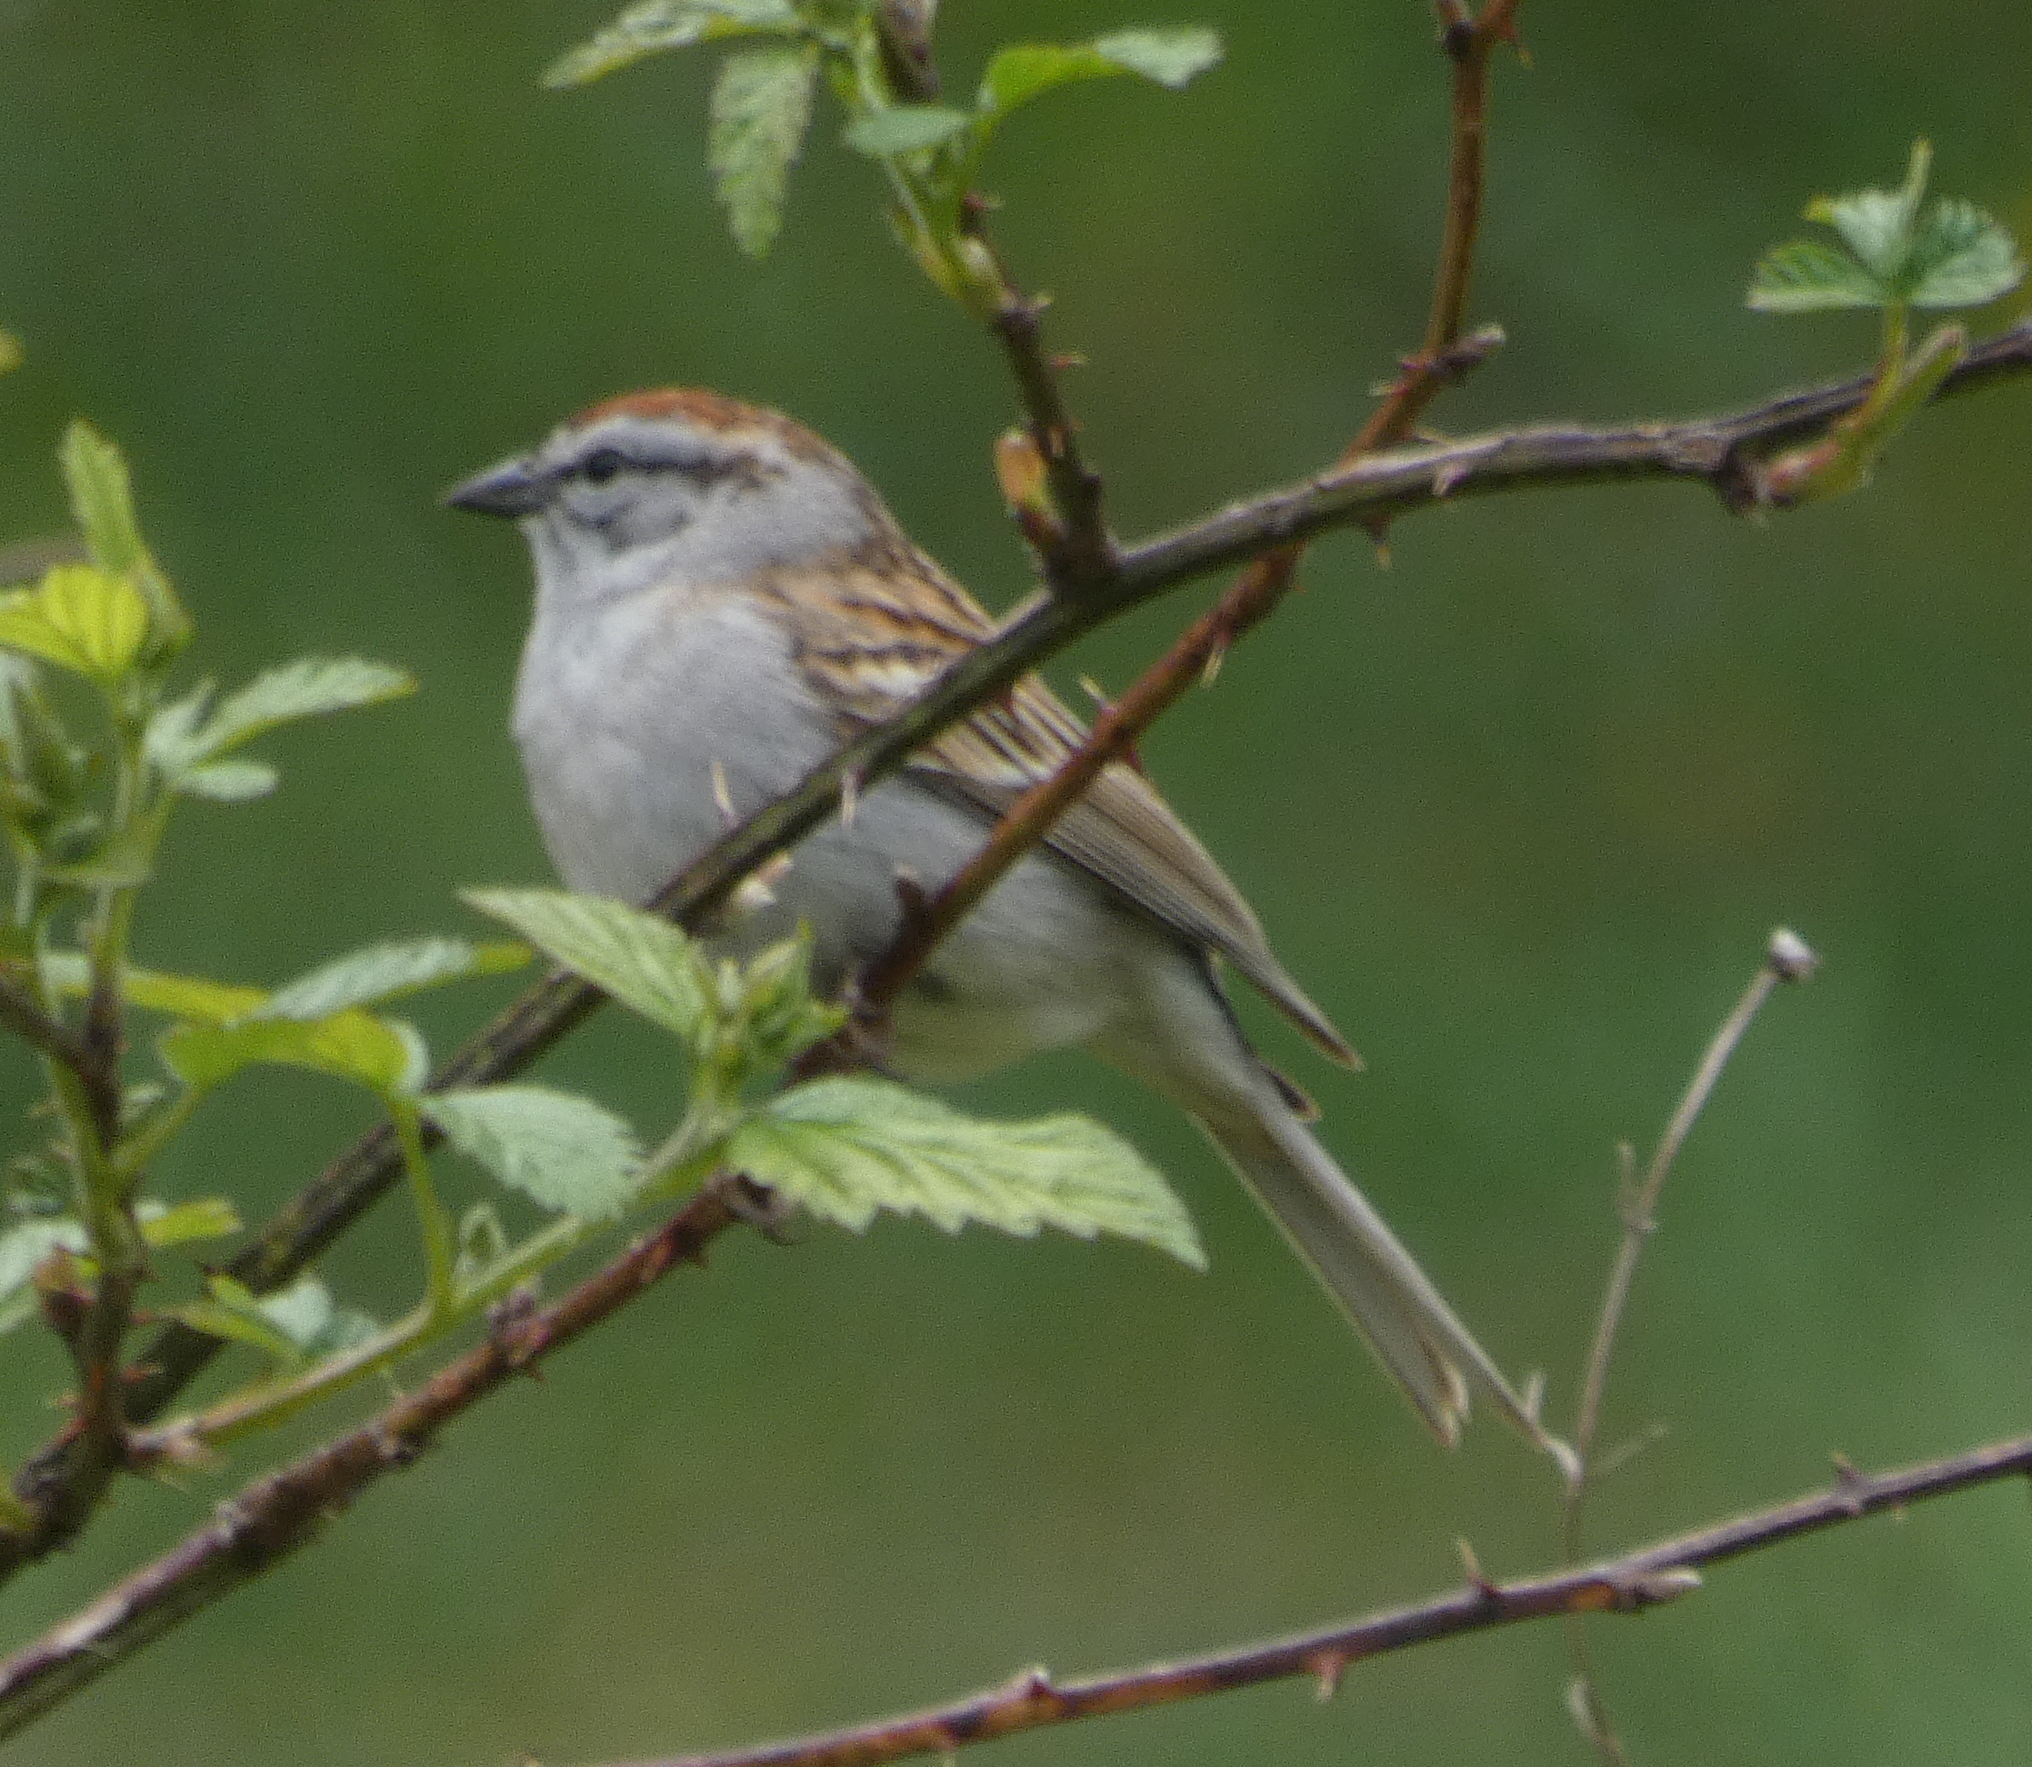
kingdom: Animalia
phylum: Chordata
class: Aves
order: Passeriformes
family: Passerellidae
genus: Spizella
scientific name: Spizella passerina
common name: Chipping sparrow
